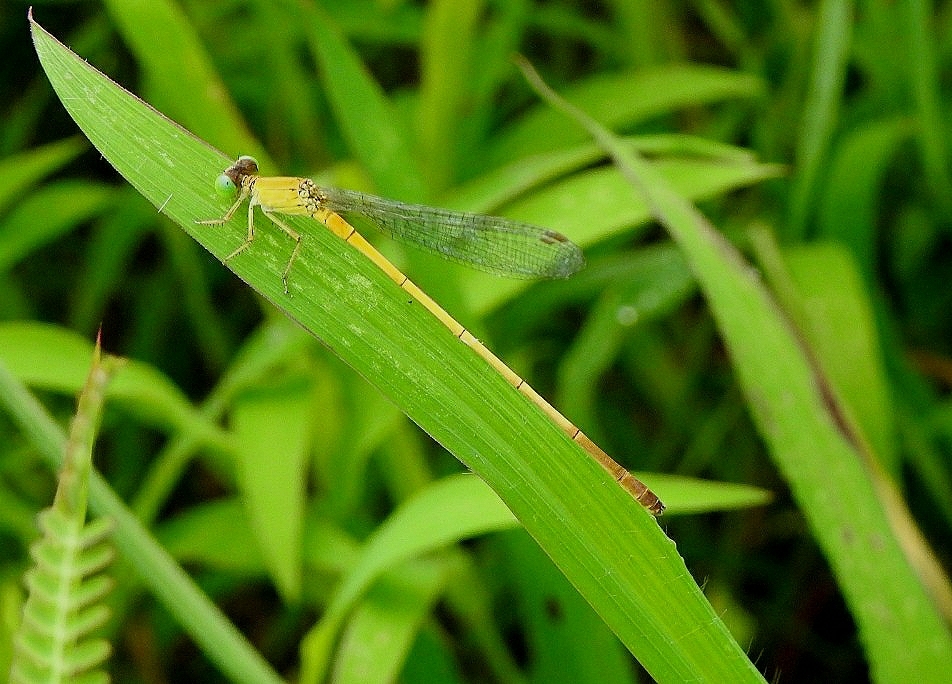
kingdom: Animalia
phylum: Arthropoda
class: Insecta
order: Odonata
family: Coenagrionidae
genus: Ceriagrion
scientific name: Ceriagrion chromothorax
